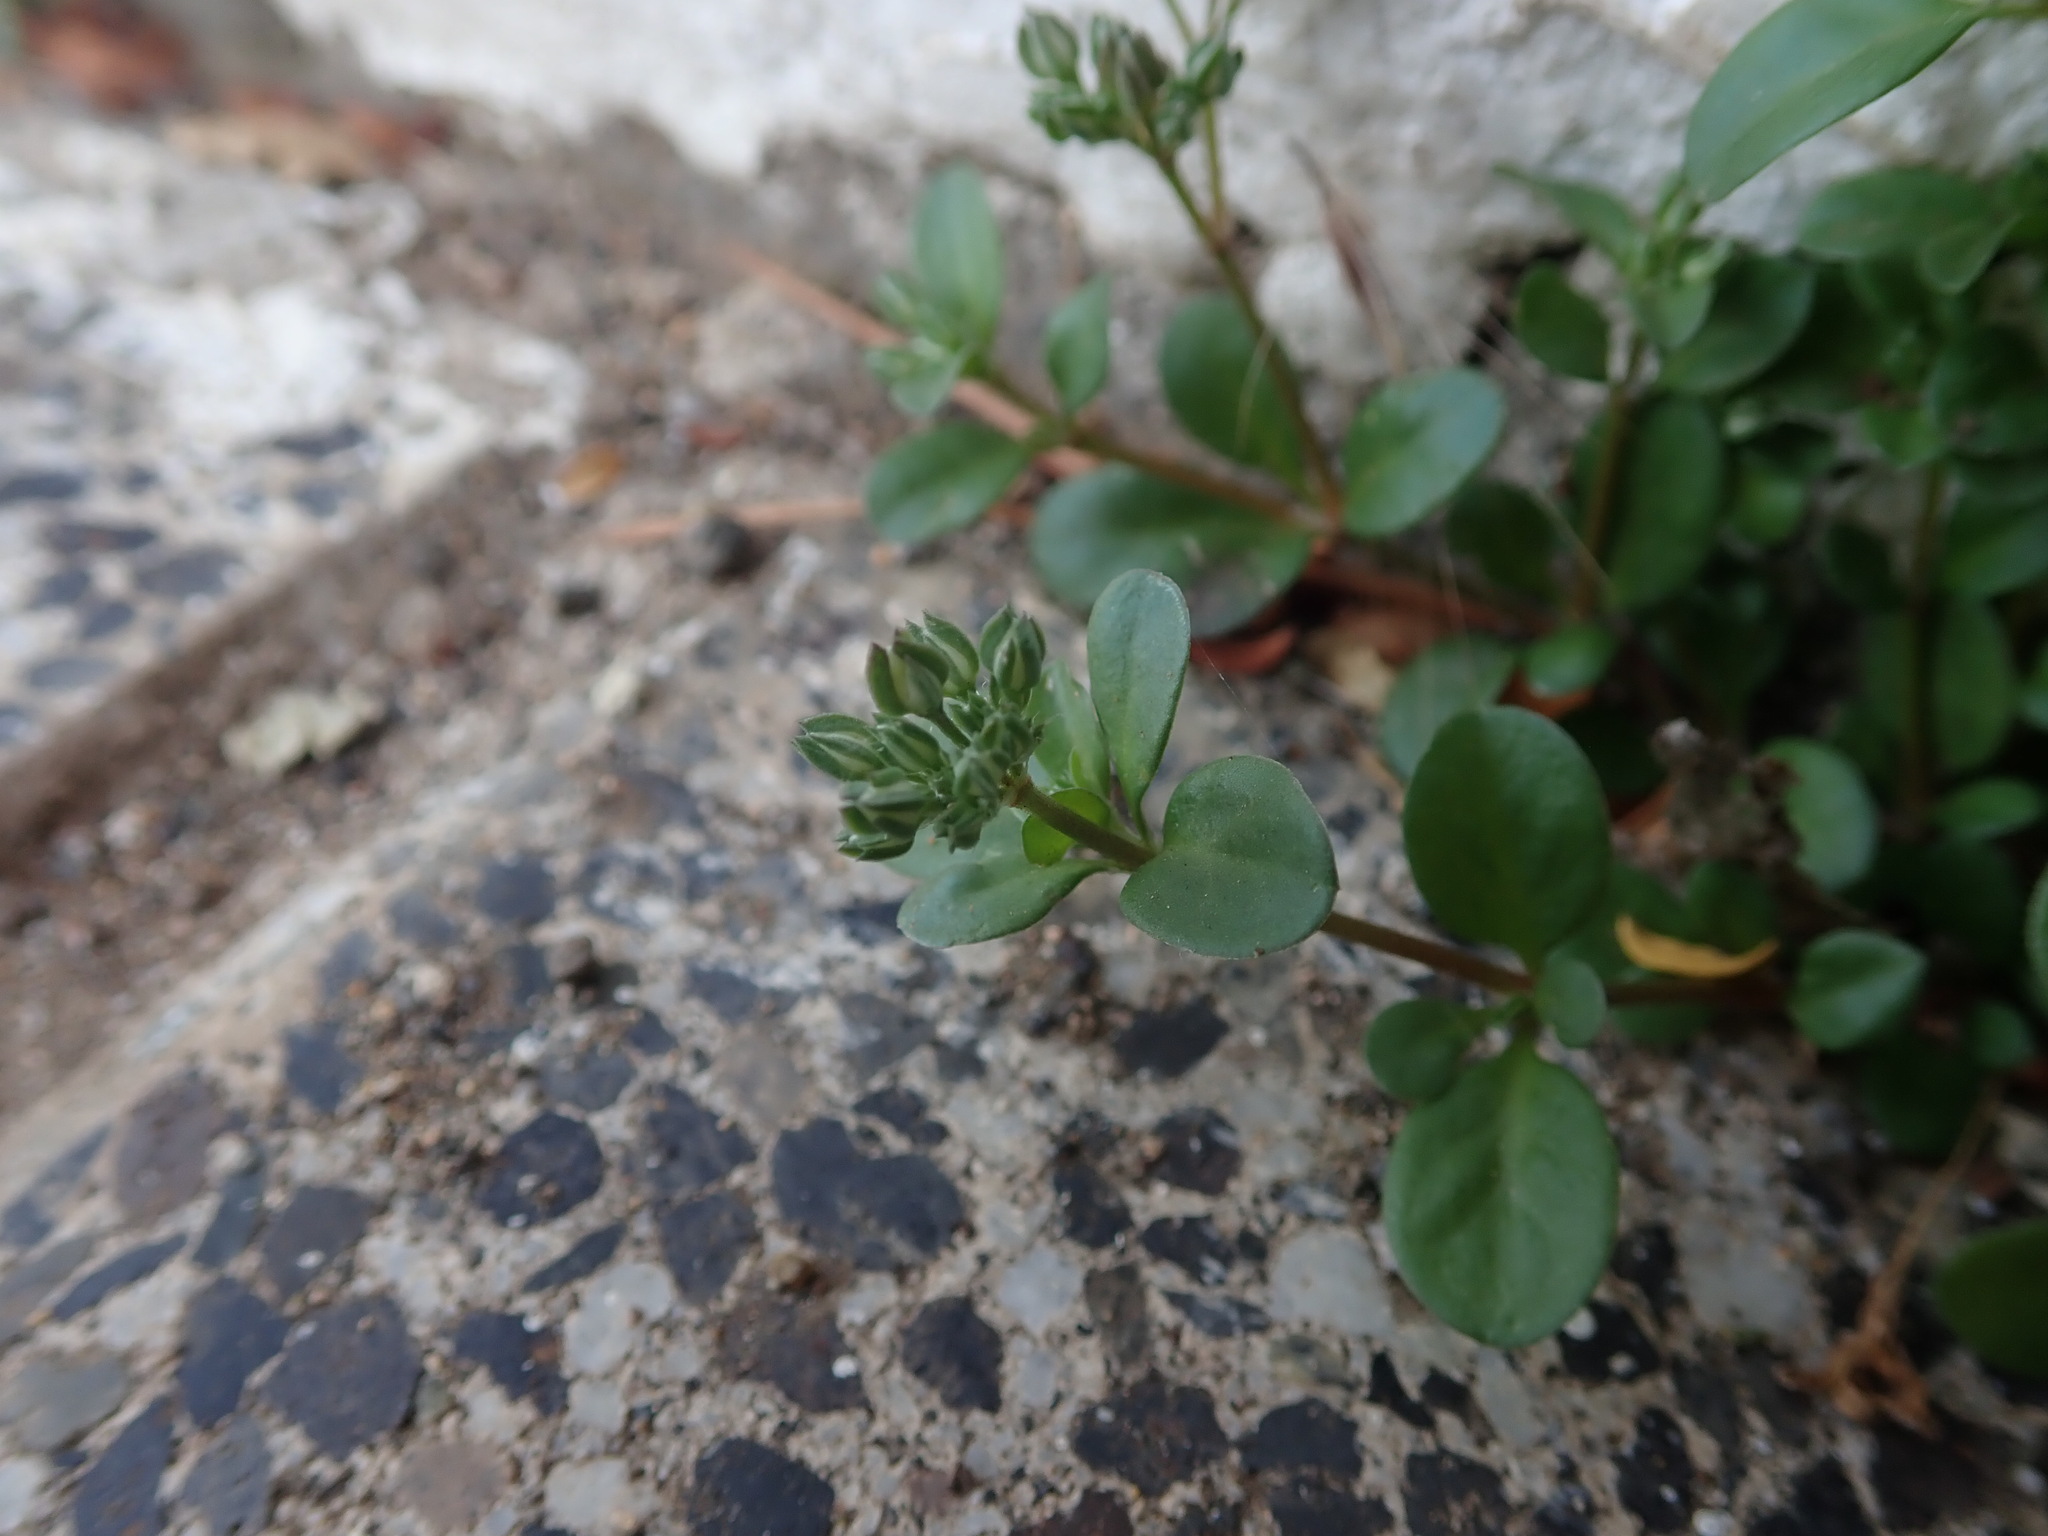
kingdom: Plantae
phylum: Tracheophyta
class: Magnoliopsida
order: Caryophyllales
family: Caryophyllaceae
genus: Polycarpon
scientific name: Polycarpon tetraphyllum
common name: Four-leaved all-seed
